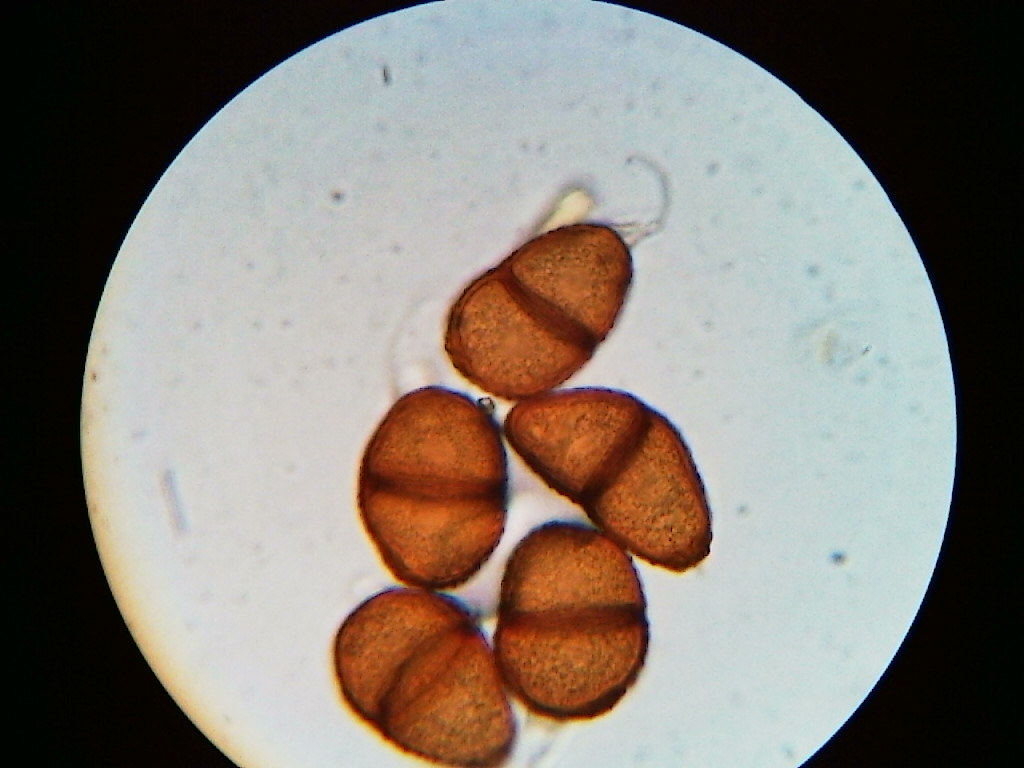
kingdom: Fungi
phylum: Basidiomycota
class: Pucciniomycetes
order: Pucciniales
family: Pucciniaceae
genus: Puccinia
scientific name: Puccinia orbicula
